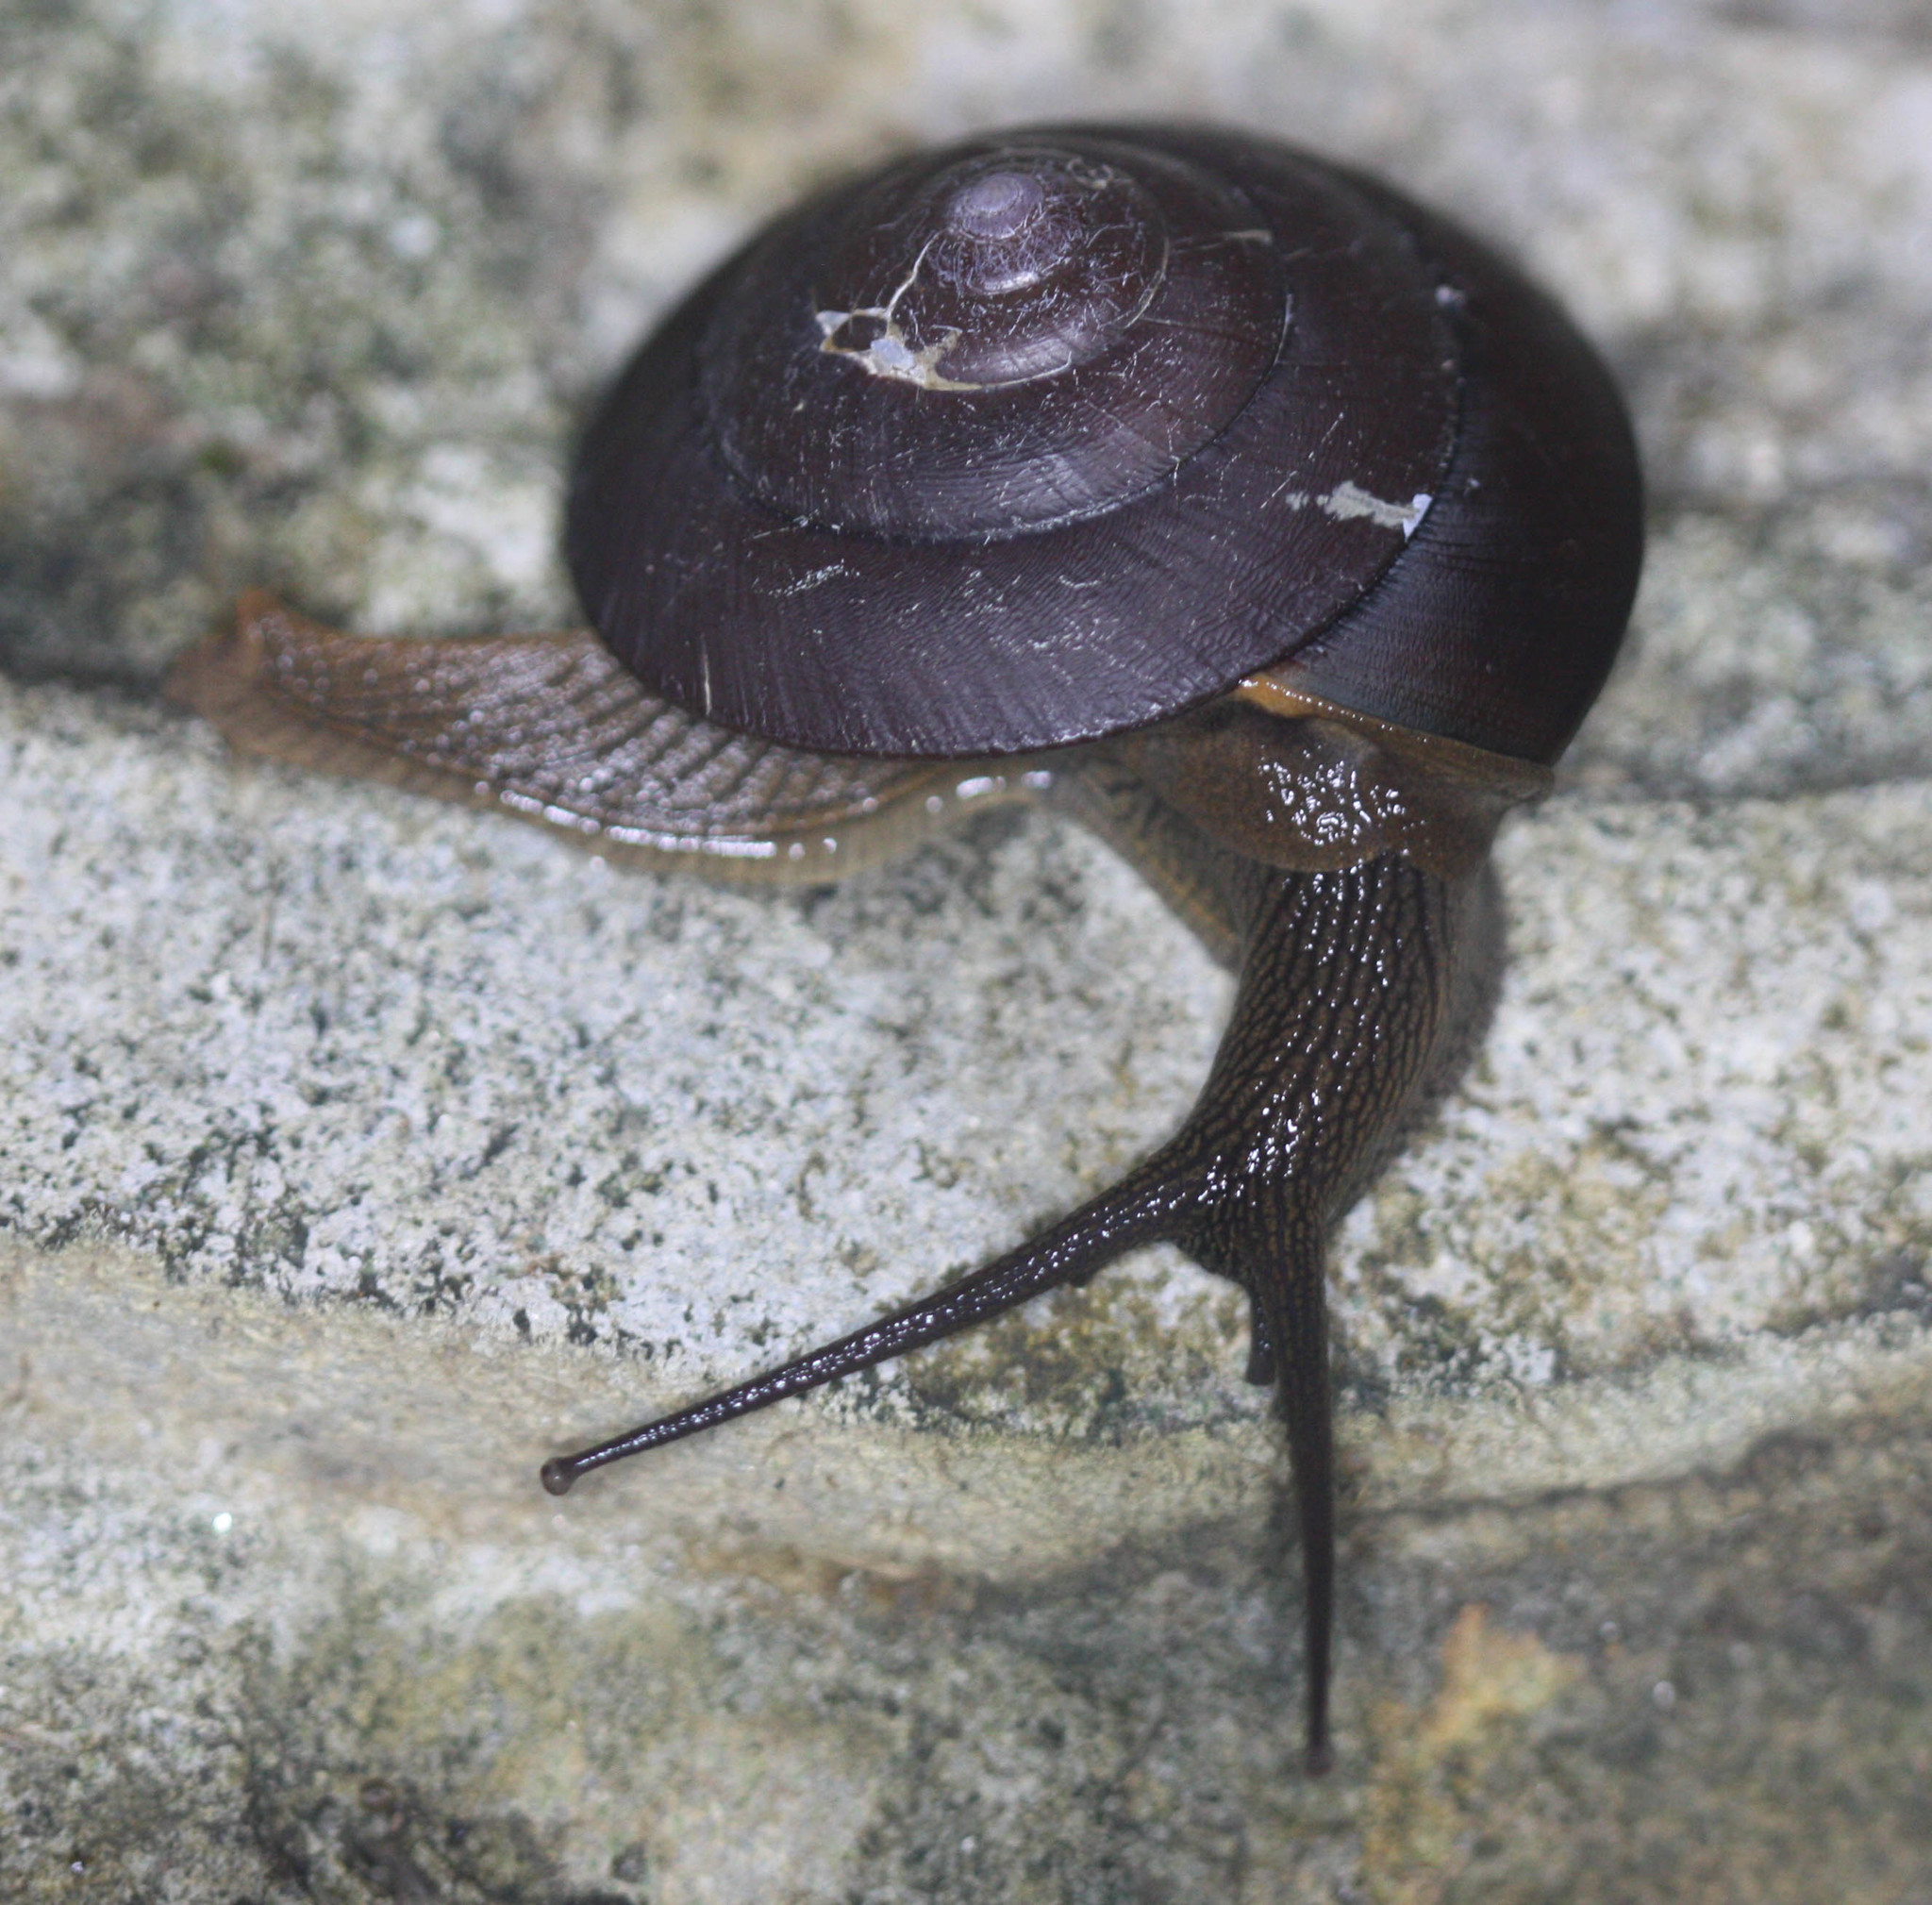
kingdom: Animalia
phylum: Mollusca
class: Gastropoda
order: Stylommatophora
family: Ariophantidae
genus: Hemiplecta
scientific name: Hemiplecta cymatium
